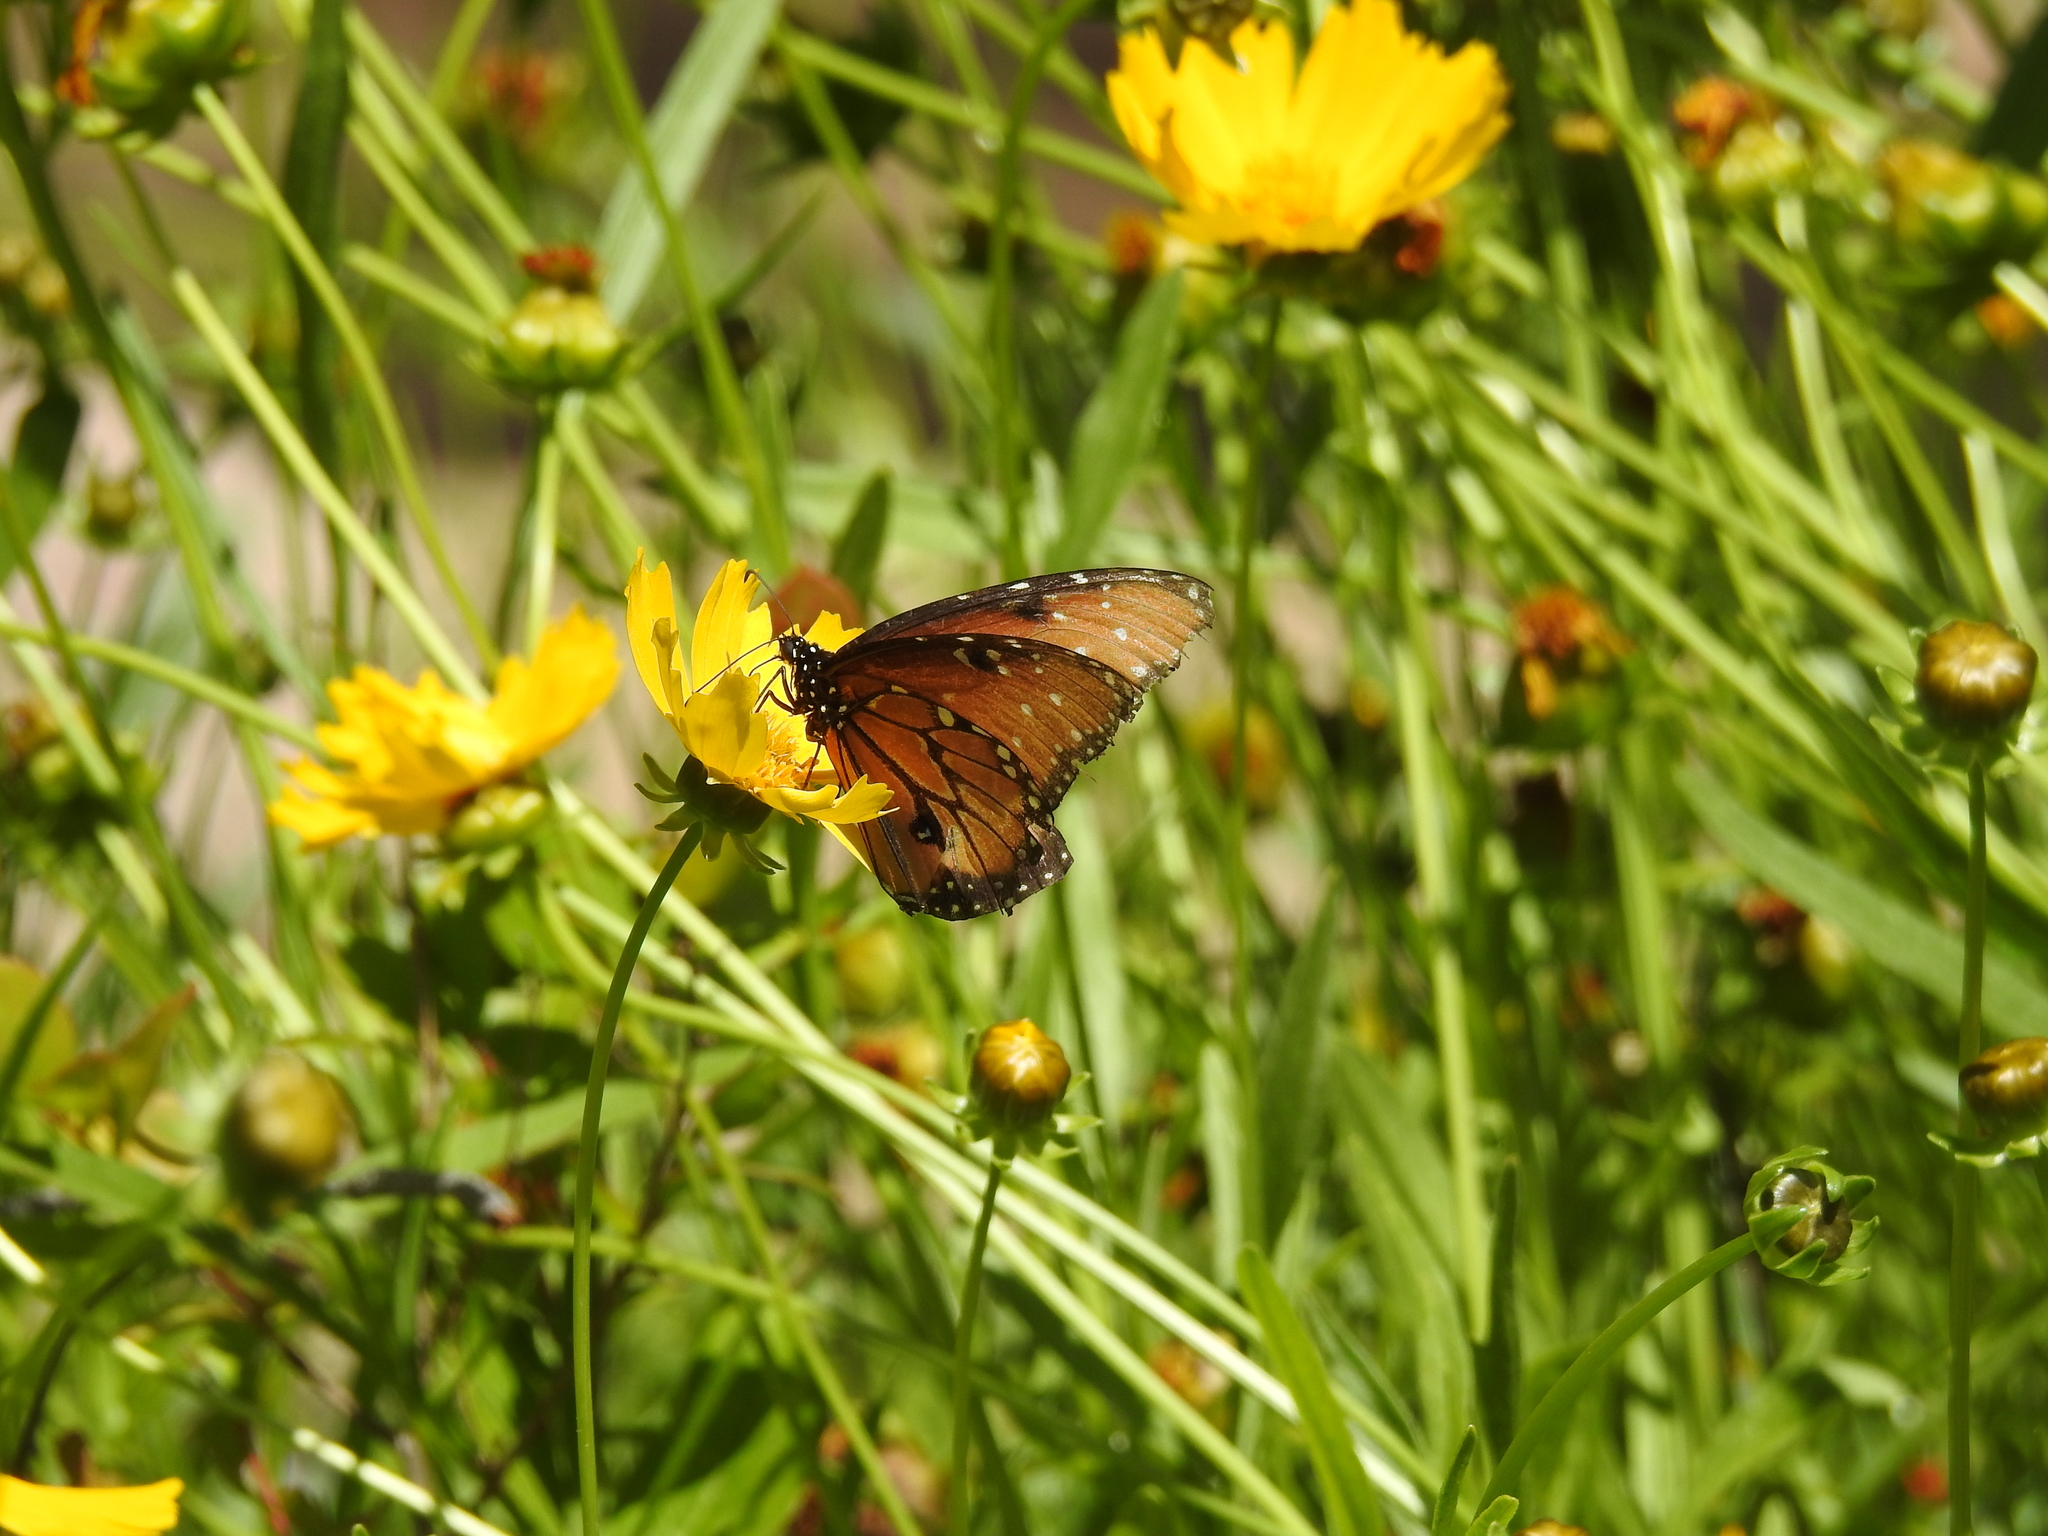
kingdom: Animalia
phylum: Arthropoda
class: Insecta
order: Lepidoptera
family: Nymphalidae
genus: Danaus
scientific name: Danaus gilippus
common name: Queen
